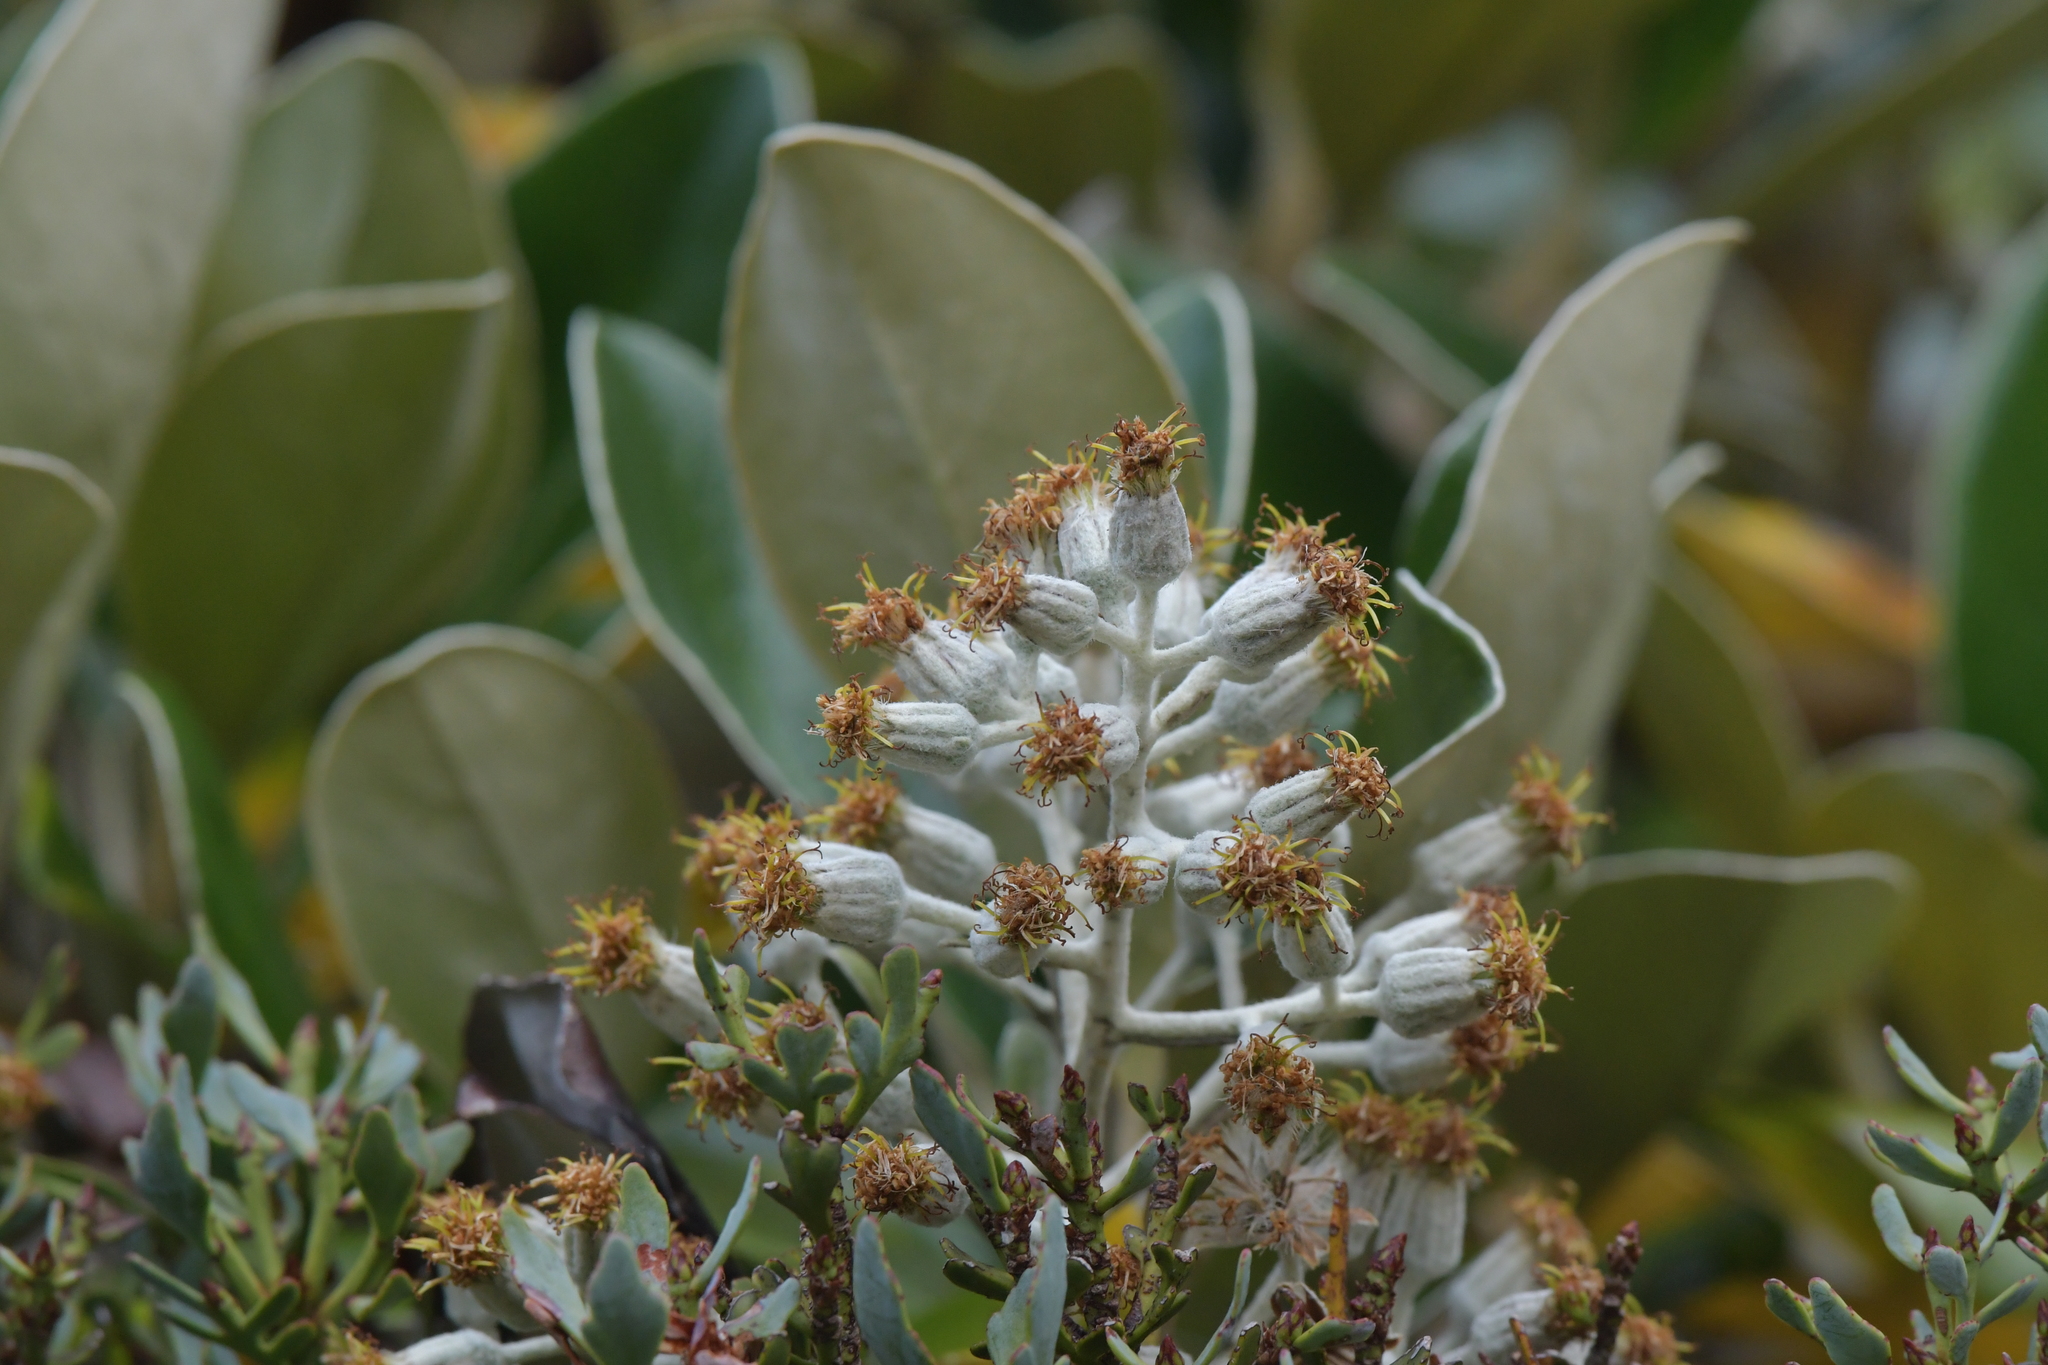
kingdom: Plantae
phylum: Tracheophyta
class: Magnoliopsida
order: Asterales
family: Asteraceae
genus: Brachyglottis
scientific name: Brachyglottis elaeagnifolia
